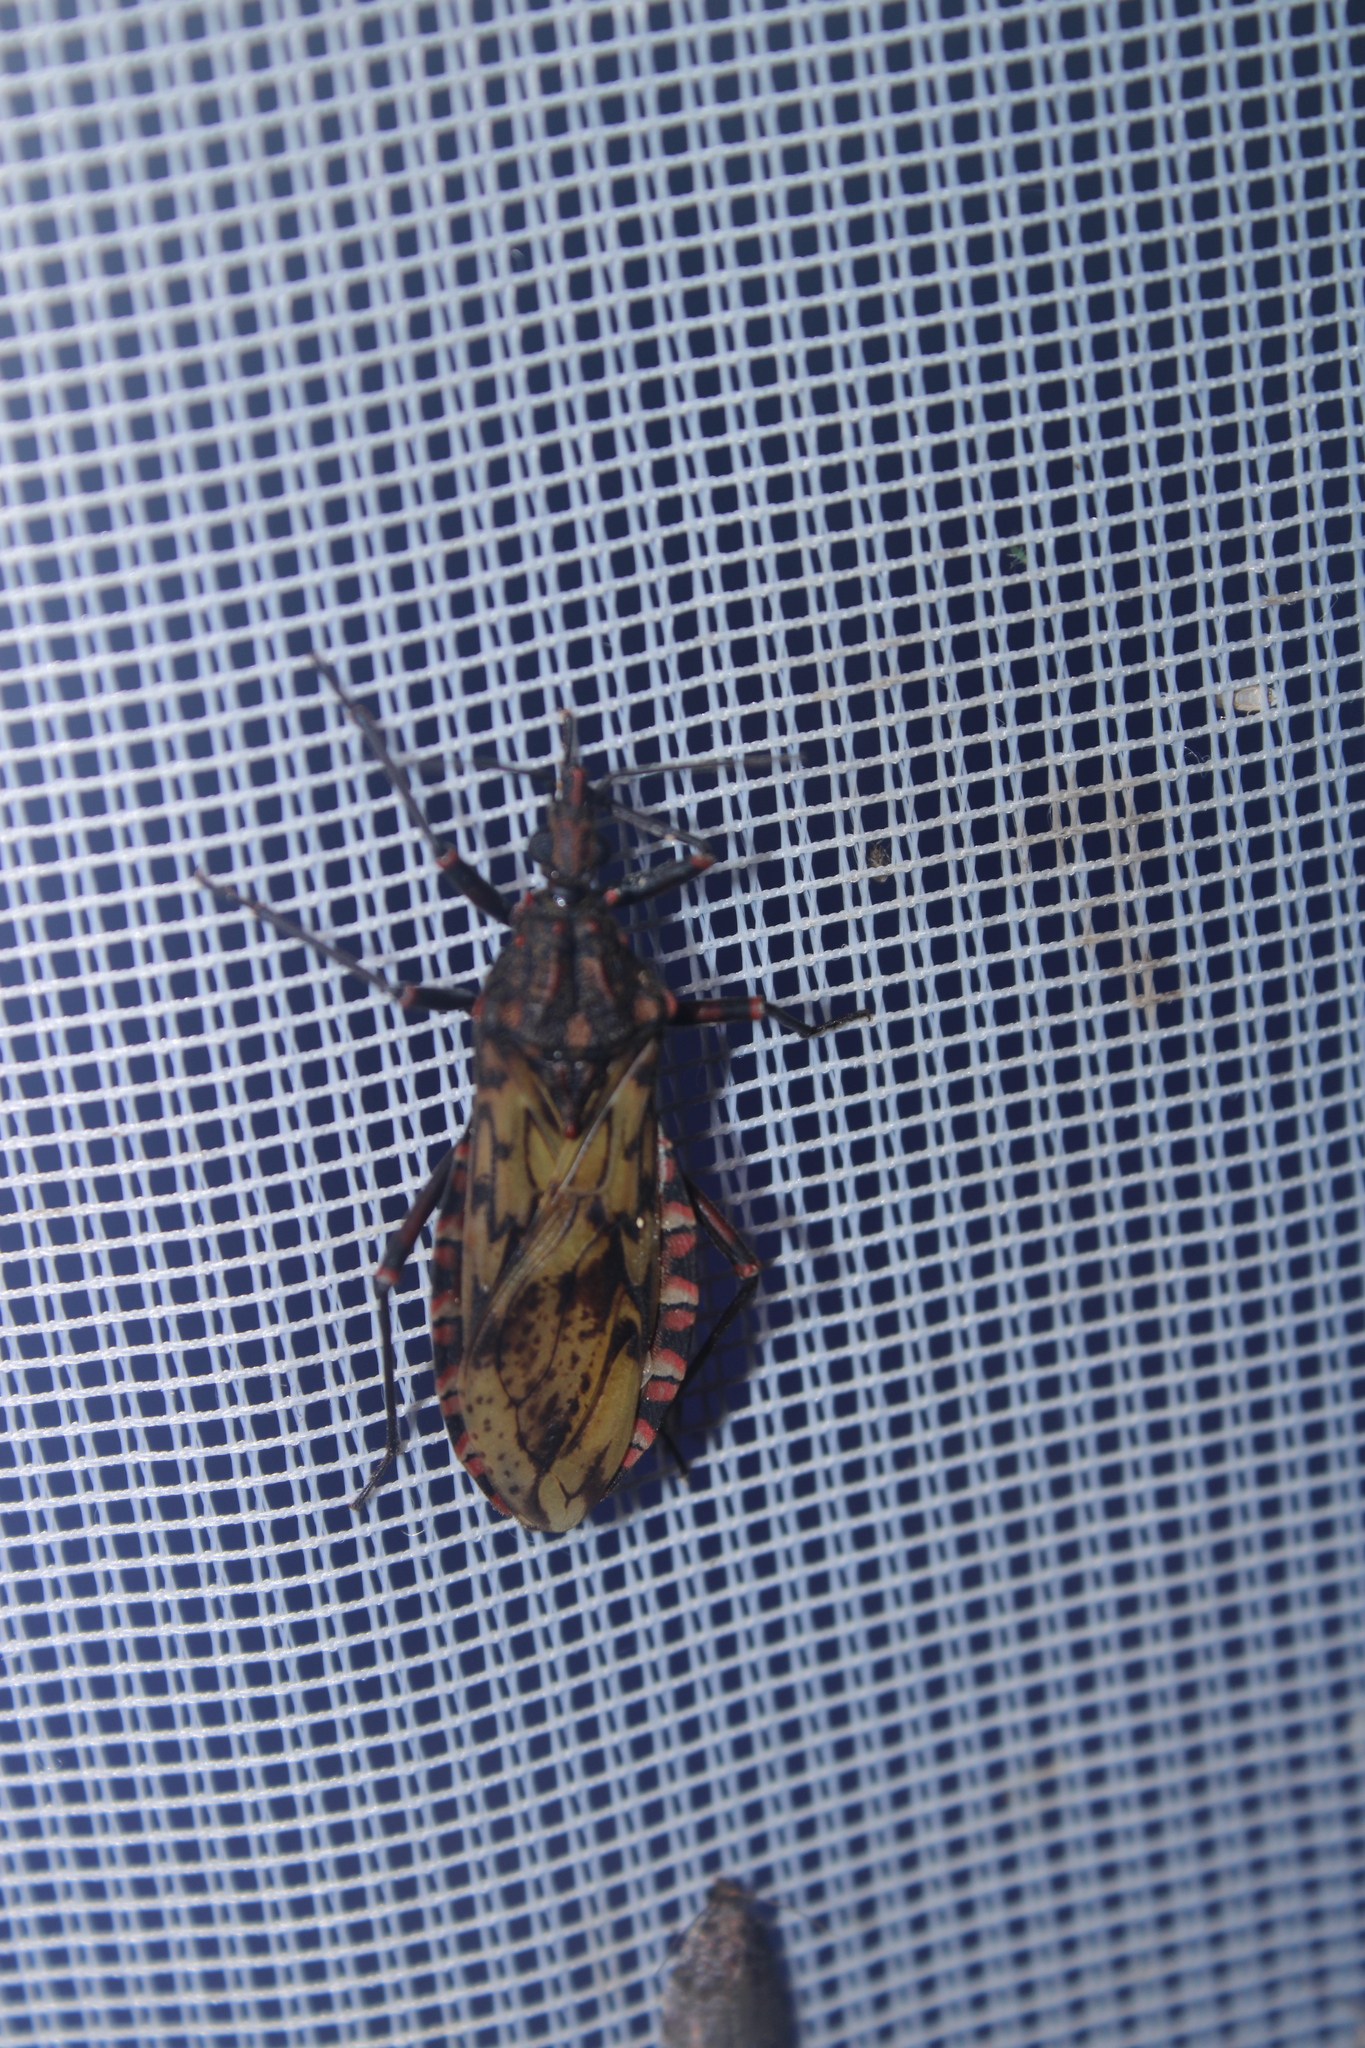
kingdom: Animalia
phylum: Arthropoda
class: Insecta
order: Hemiptera
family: Reduviidae
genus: Panstrongylus
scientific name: Panstrongylus rufotuberculatus
